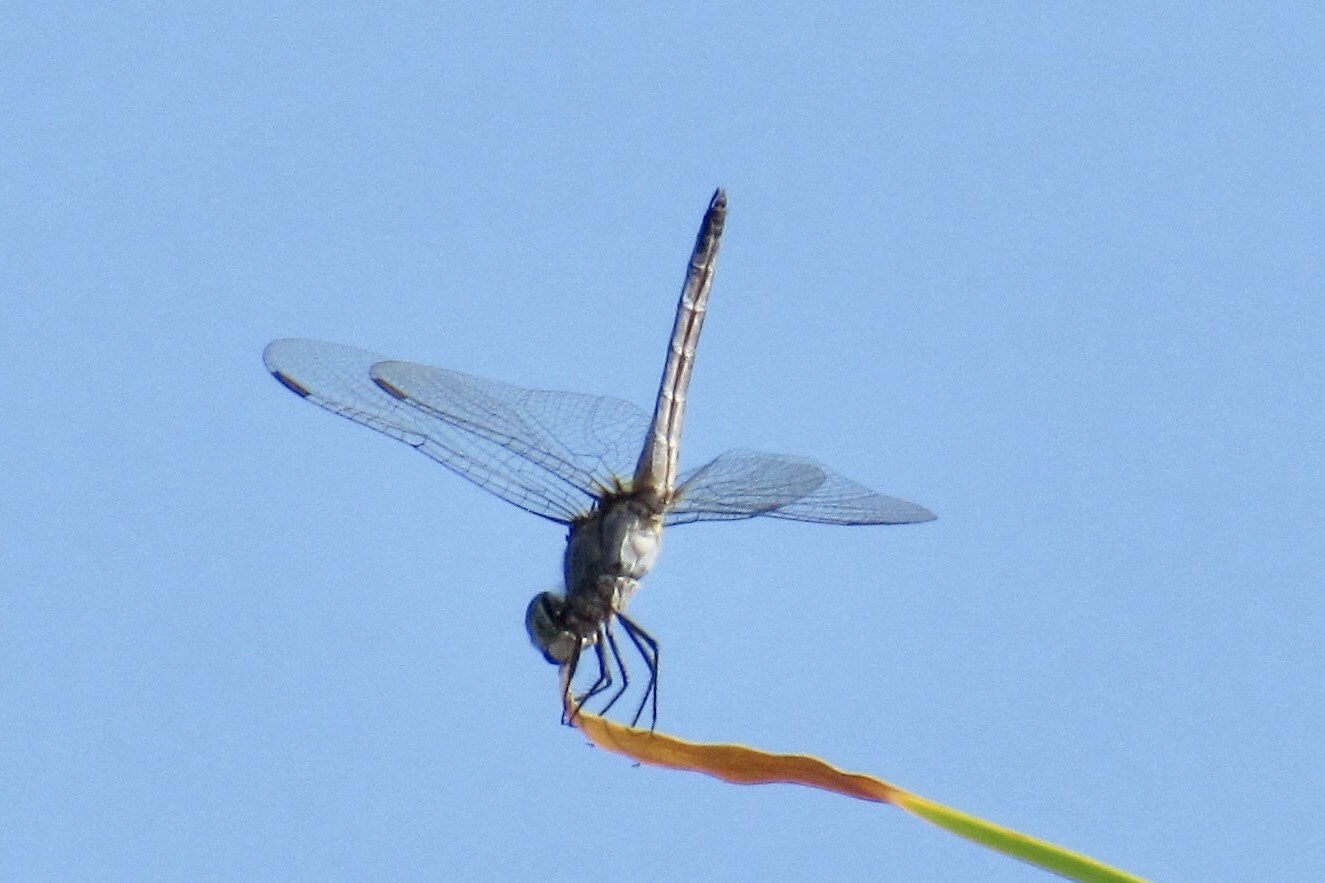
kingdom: Animalia
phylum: Arthropoda
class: Insecta
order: Odonata
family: Libellulidae
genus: Pachydiplax
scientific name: Pachydiplax longipennis
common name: Blue dasher
